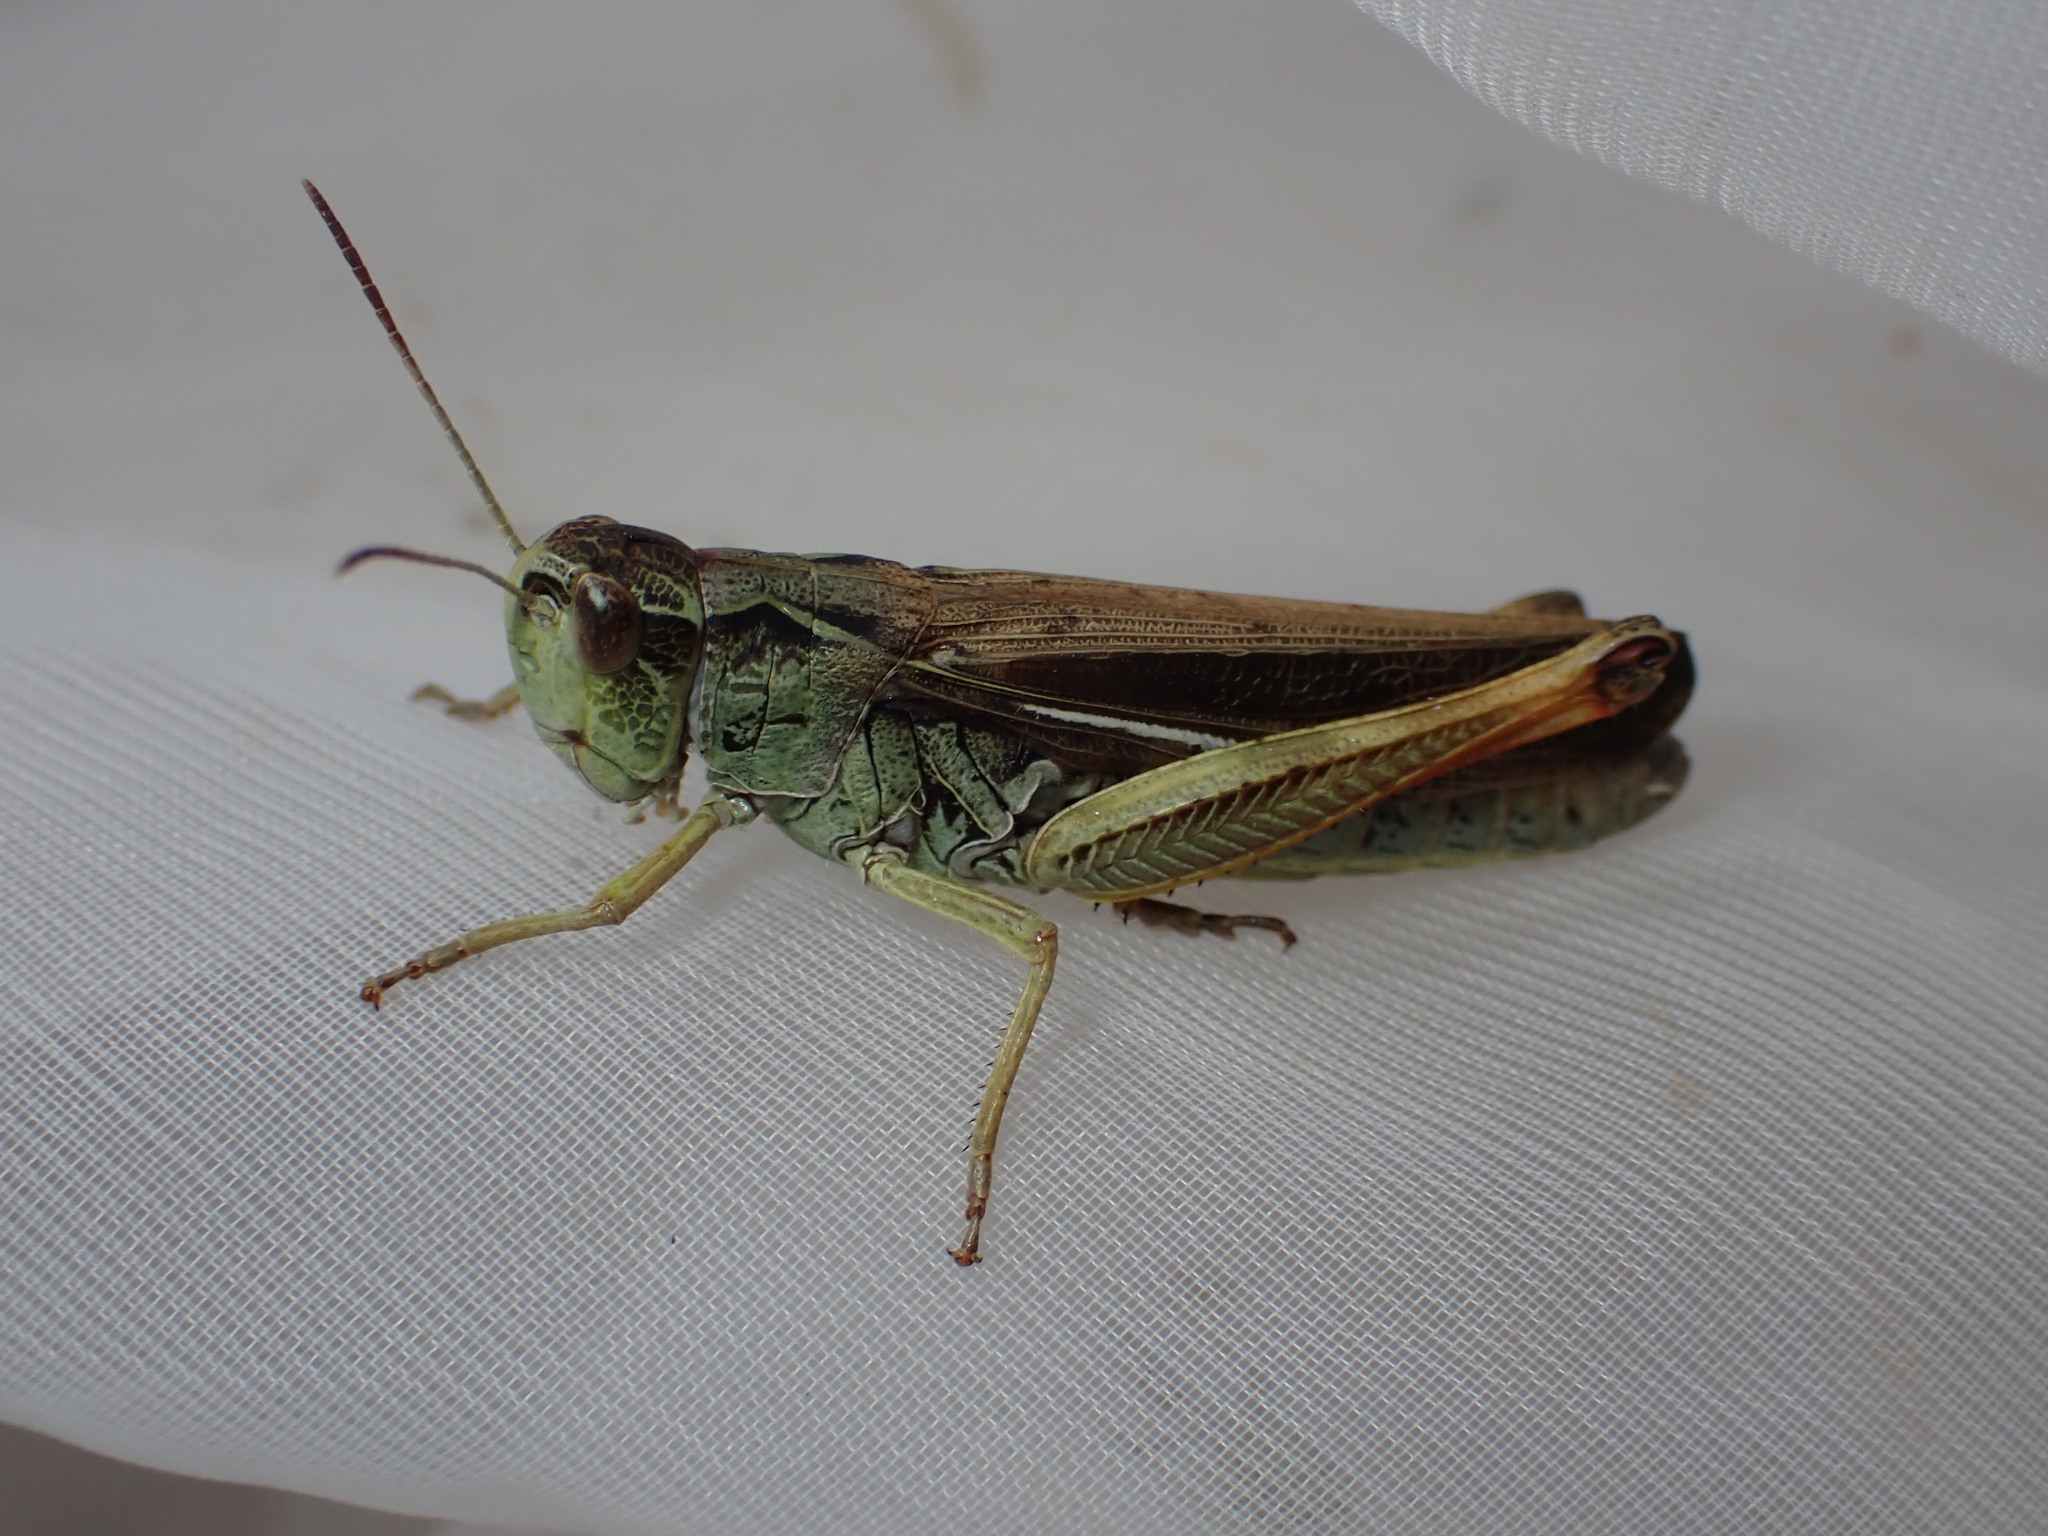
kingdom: Animalia
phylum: Arthropoda
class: Insecta
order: Orthoptera
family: Acrididae
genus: Stauroderus
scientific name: Stauroderus scalaris
